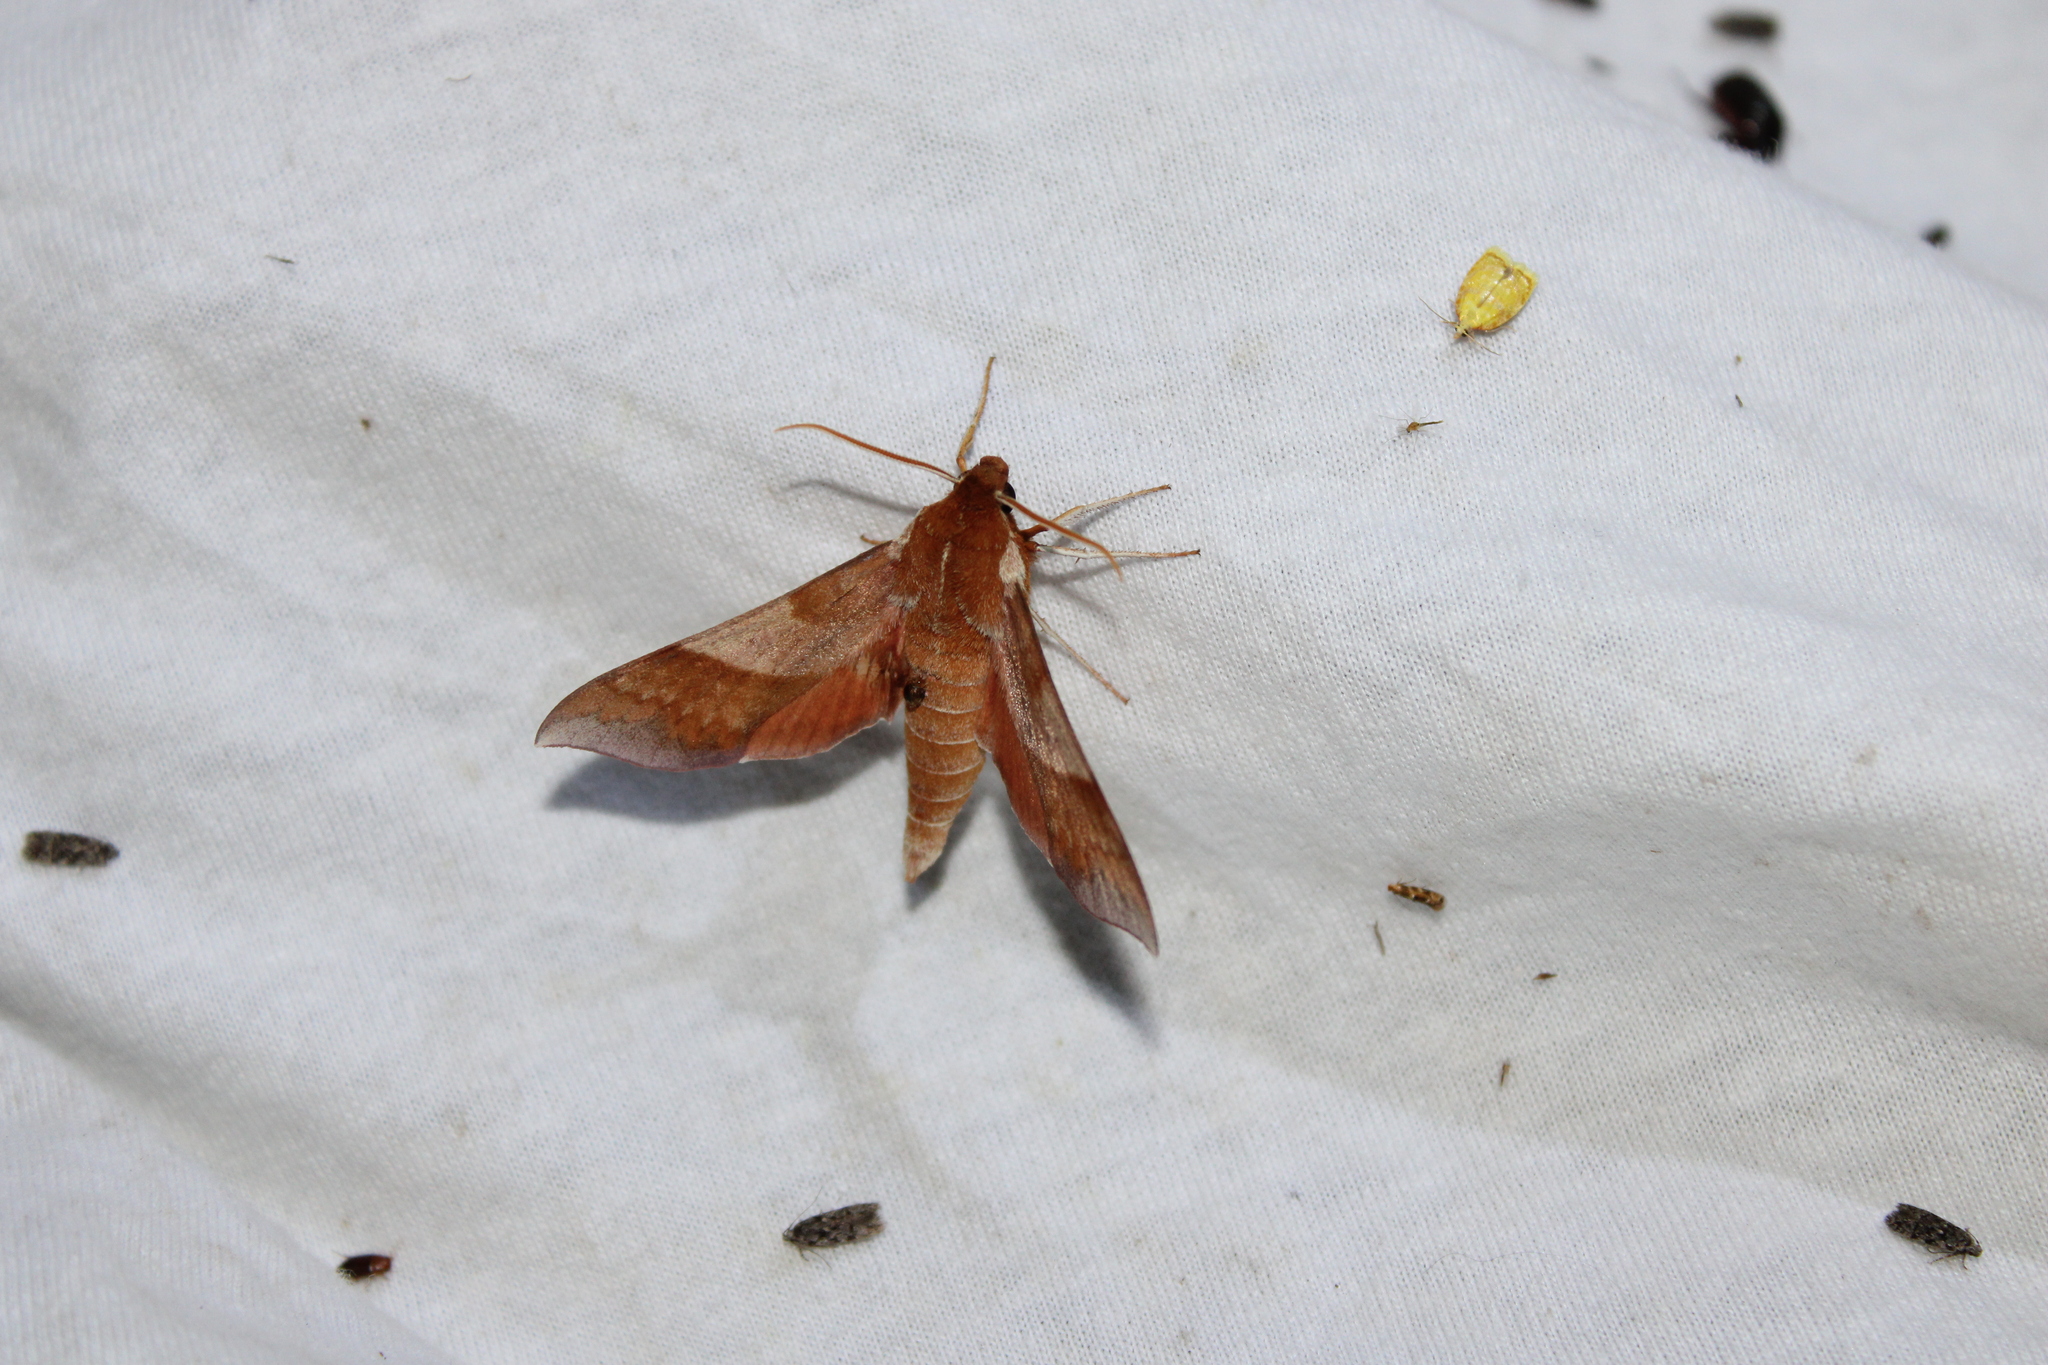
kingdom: Animalia
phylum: Arthropoda
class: Insecta
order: Lepidoptera
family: Sphingidae
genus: Darapsa
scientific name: Darapsa choerilus
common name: Azalea sphinx
